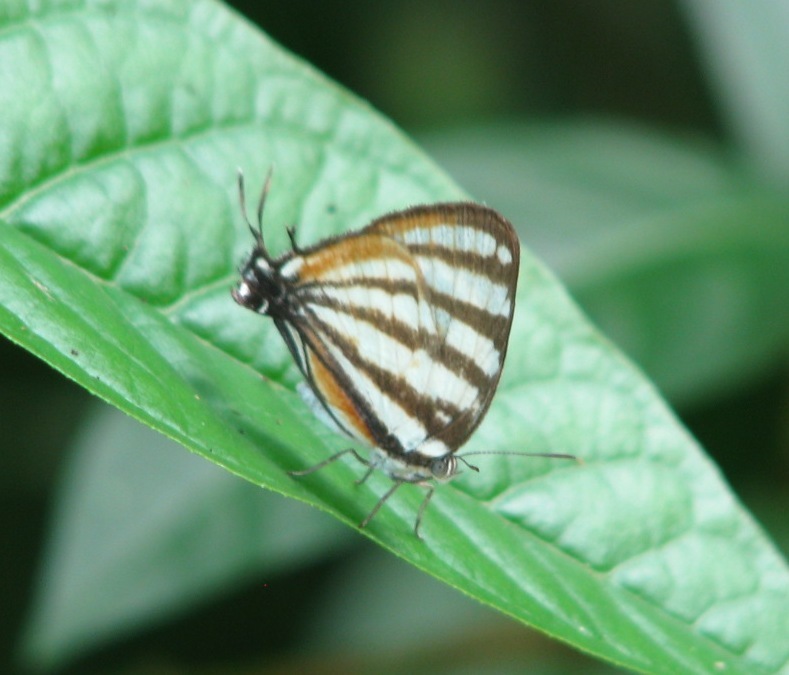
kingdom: Animalia
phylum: Arthropoda
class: Insecta
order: Lepidoptera
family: Lycaenidae
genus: Arawacus
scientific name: Arawacus lincoides
